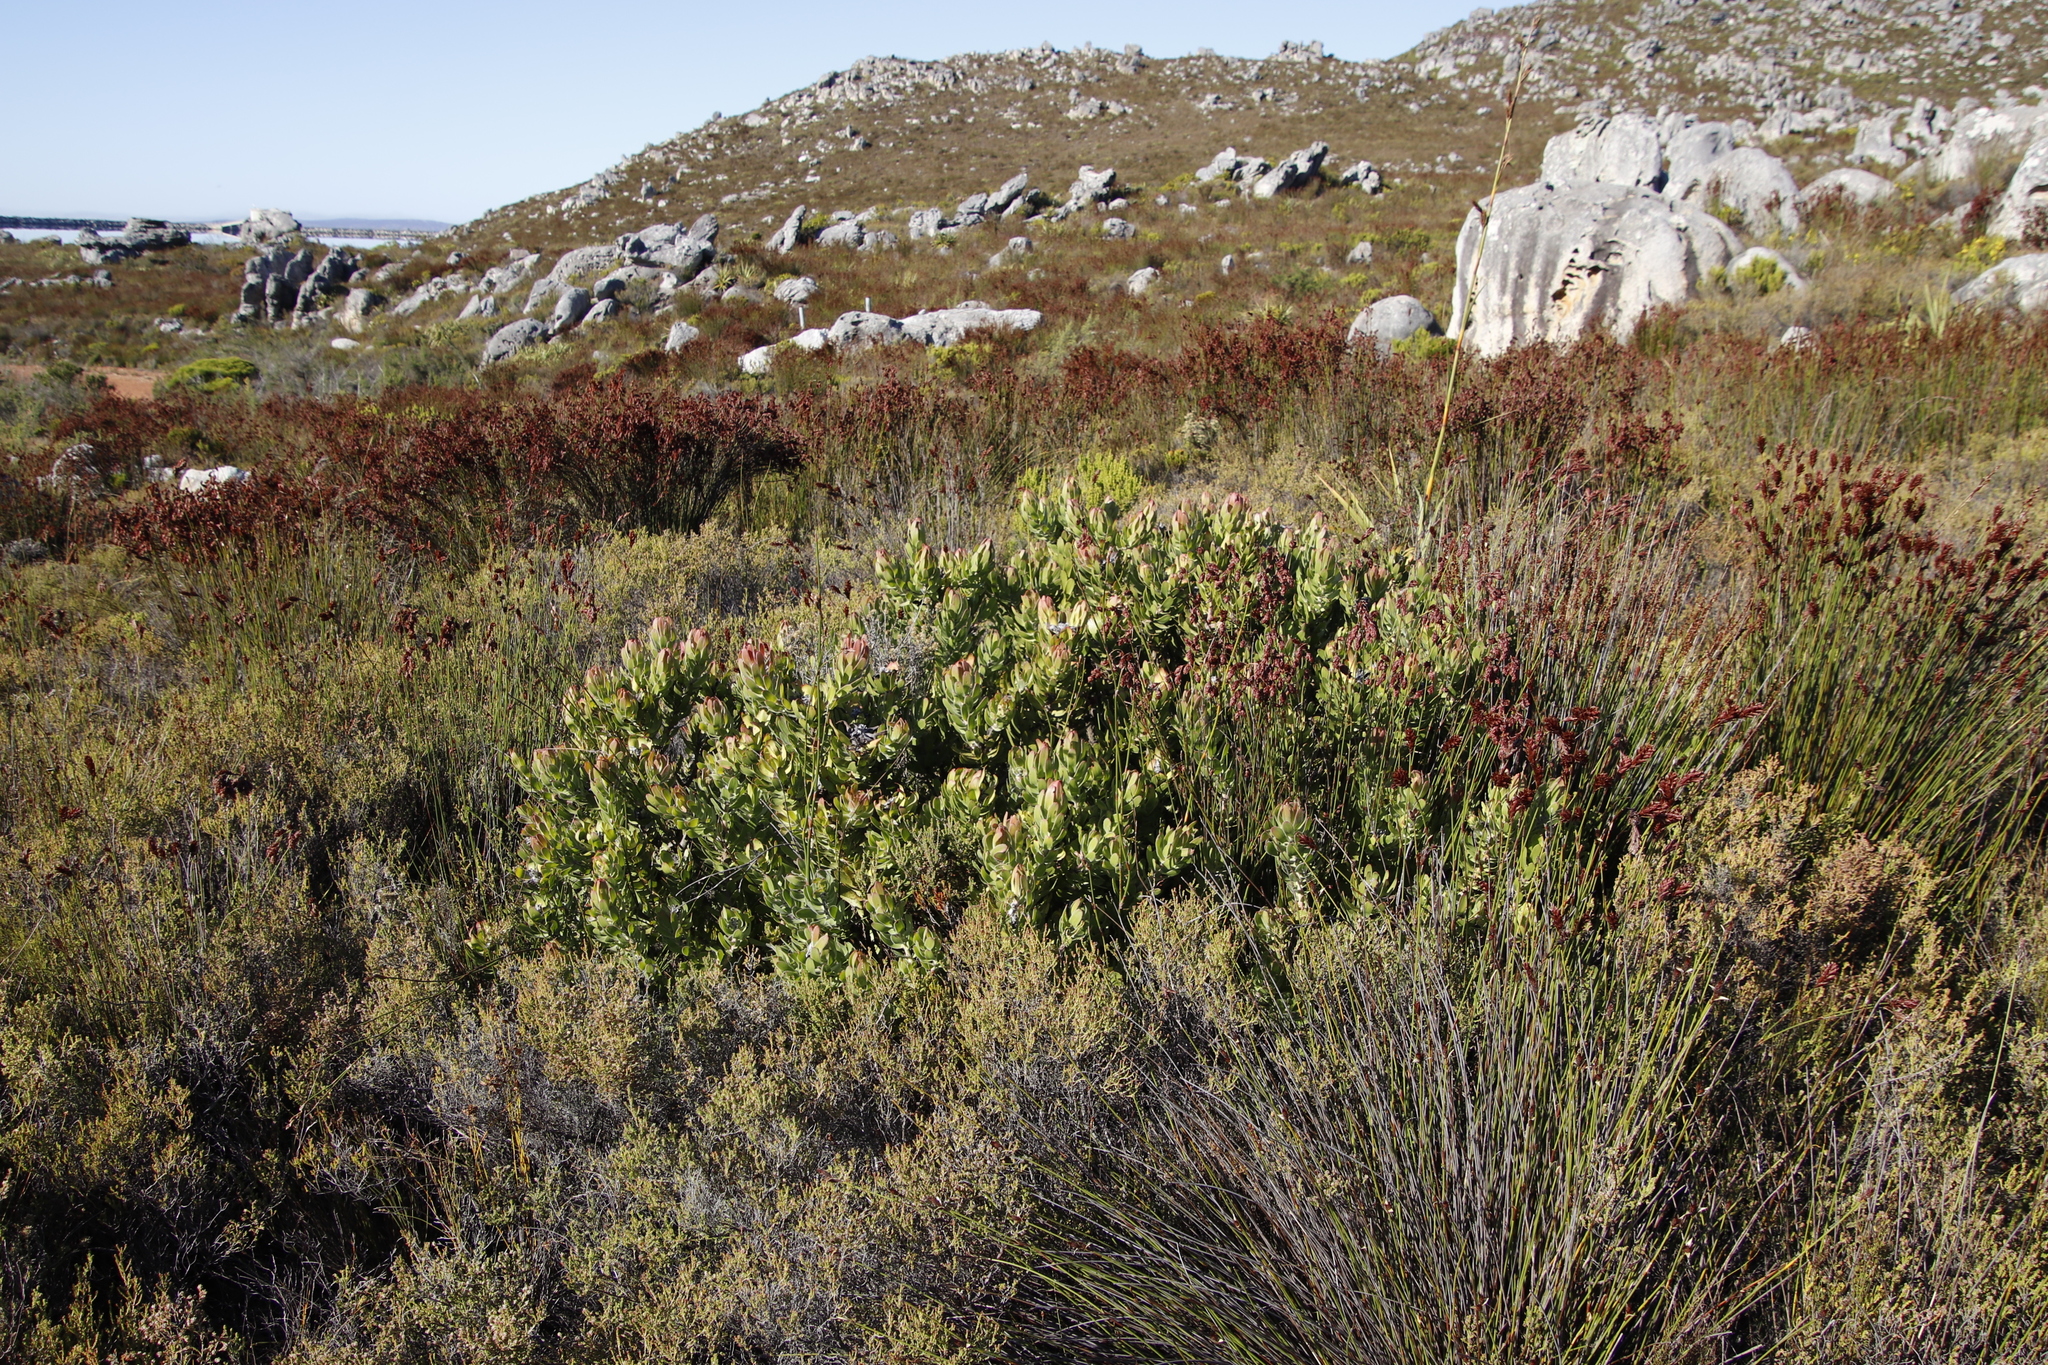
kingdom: Plantae
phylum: Tracheophyta
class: Magnoliopsida
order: Proteales
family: Proteaceae
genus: Mimetes
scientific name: Mimetes cucullatus
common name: Common pagoda
